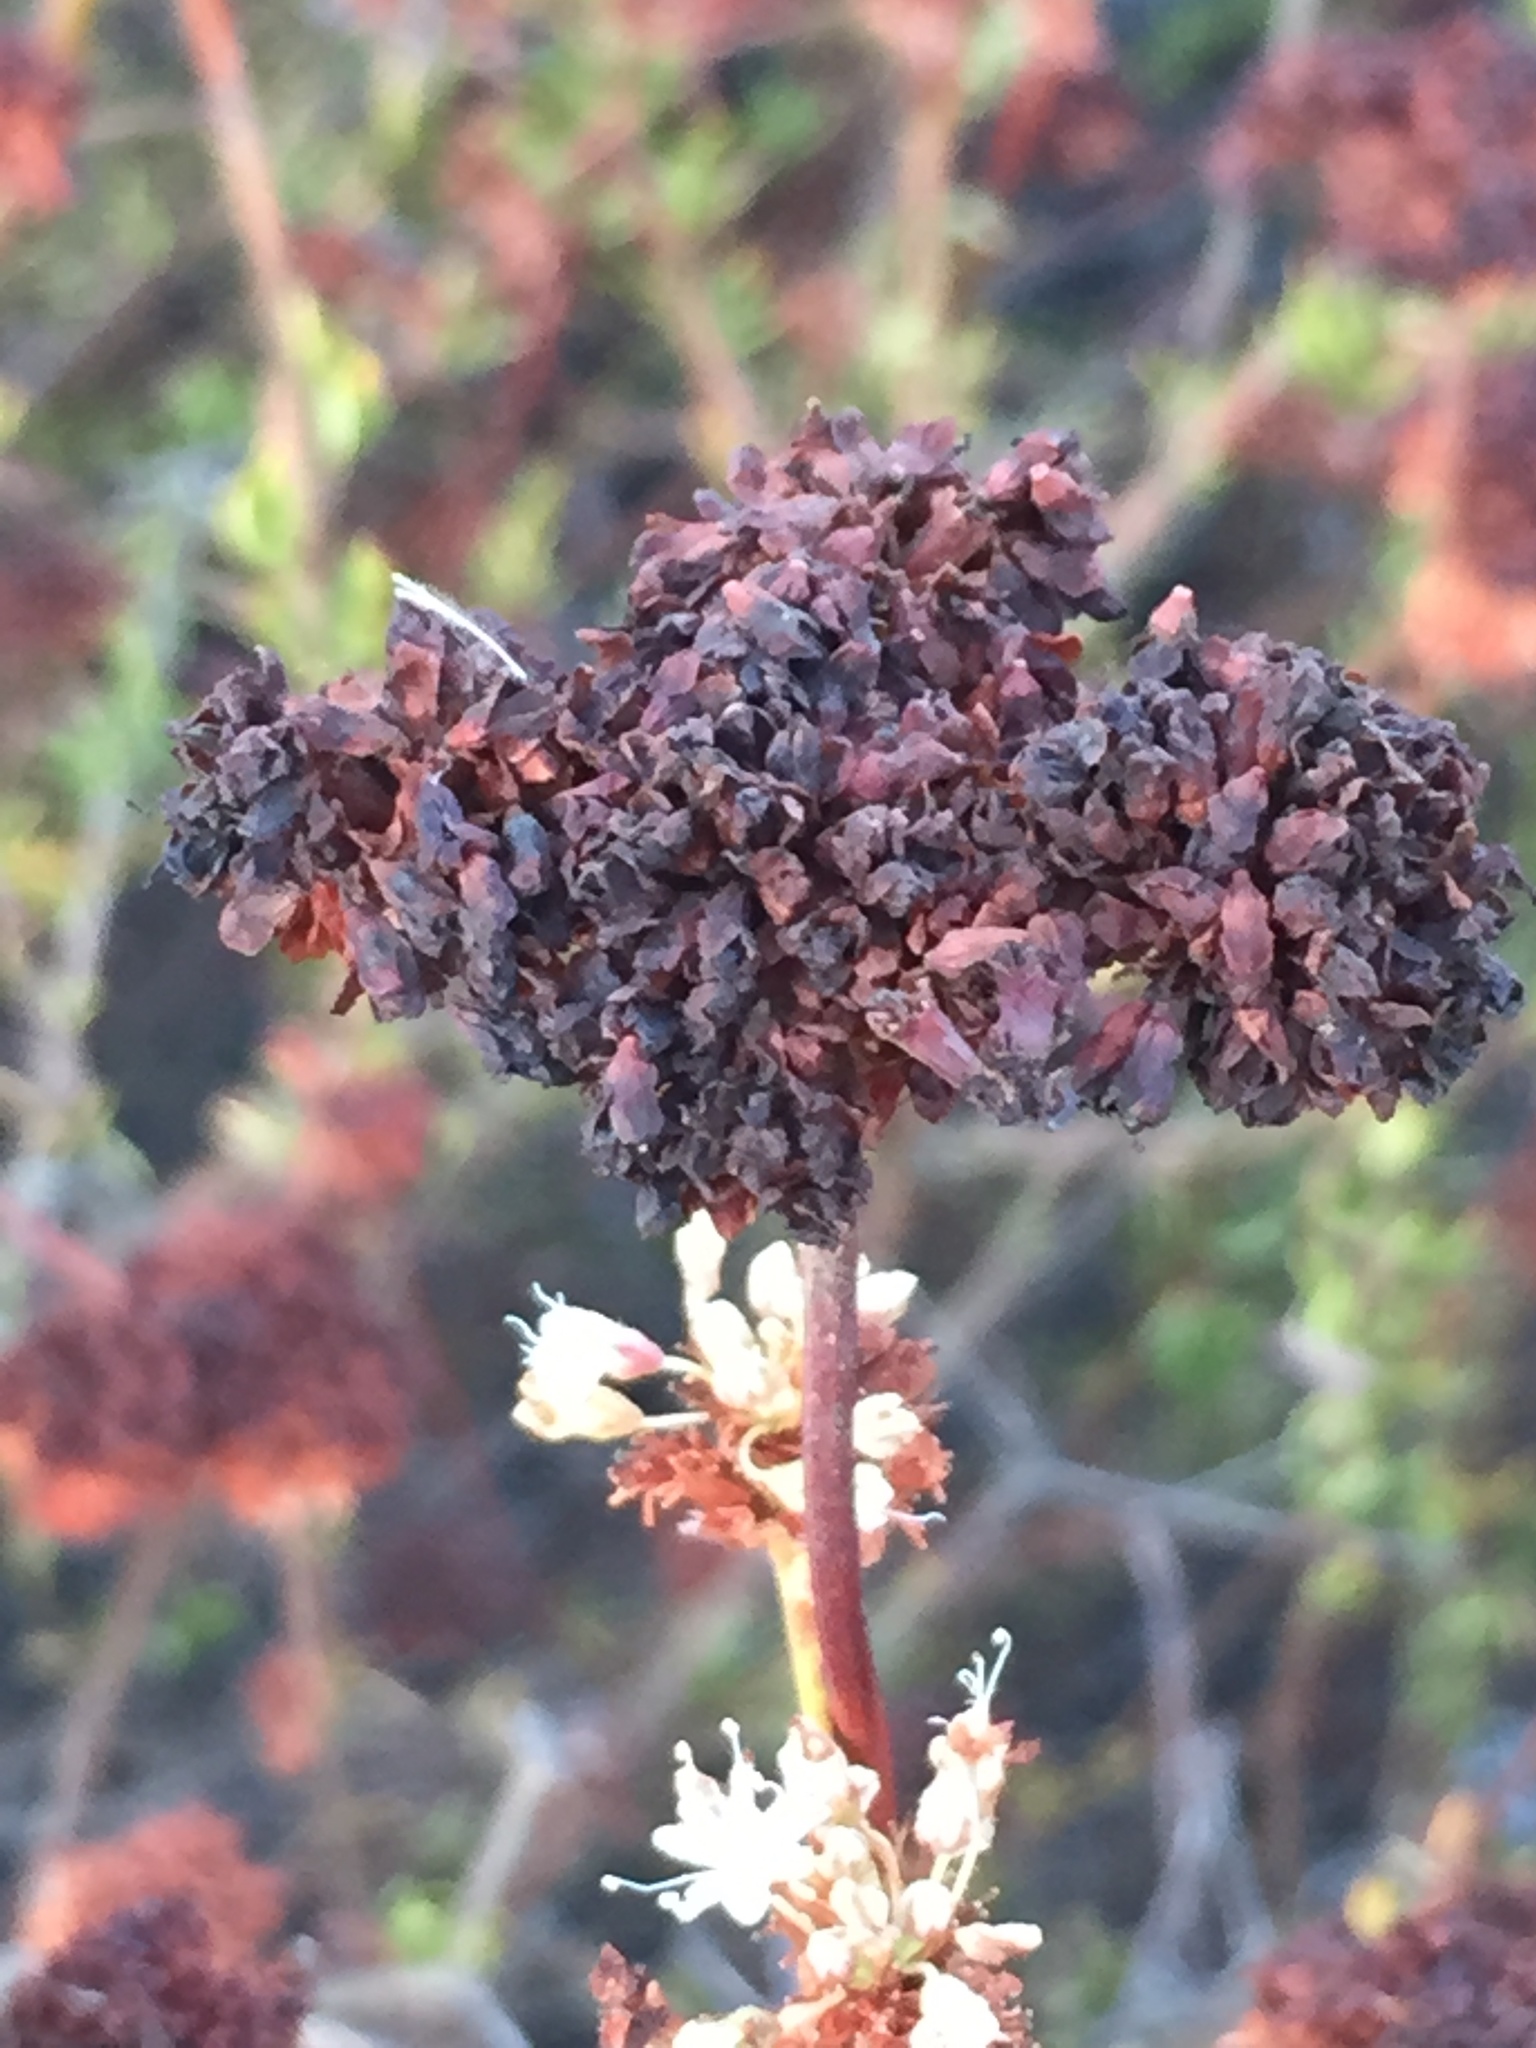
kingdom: Plantae
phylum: Tracheophyta
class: Magnoliopsida
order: Caryophyllales
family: Polygonaceae
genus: Eriogonum
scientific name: Eriogonum fasciculatum
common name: California wild buckwheat
